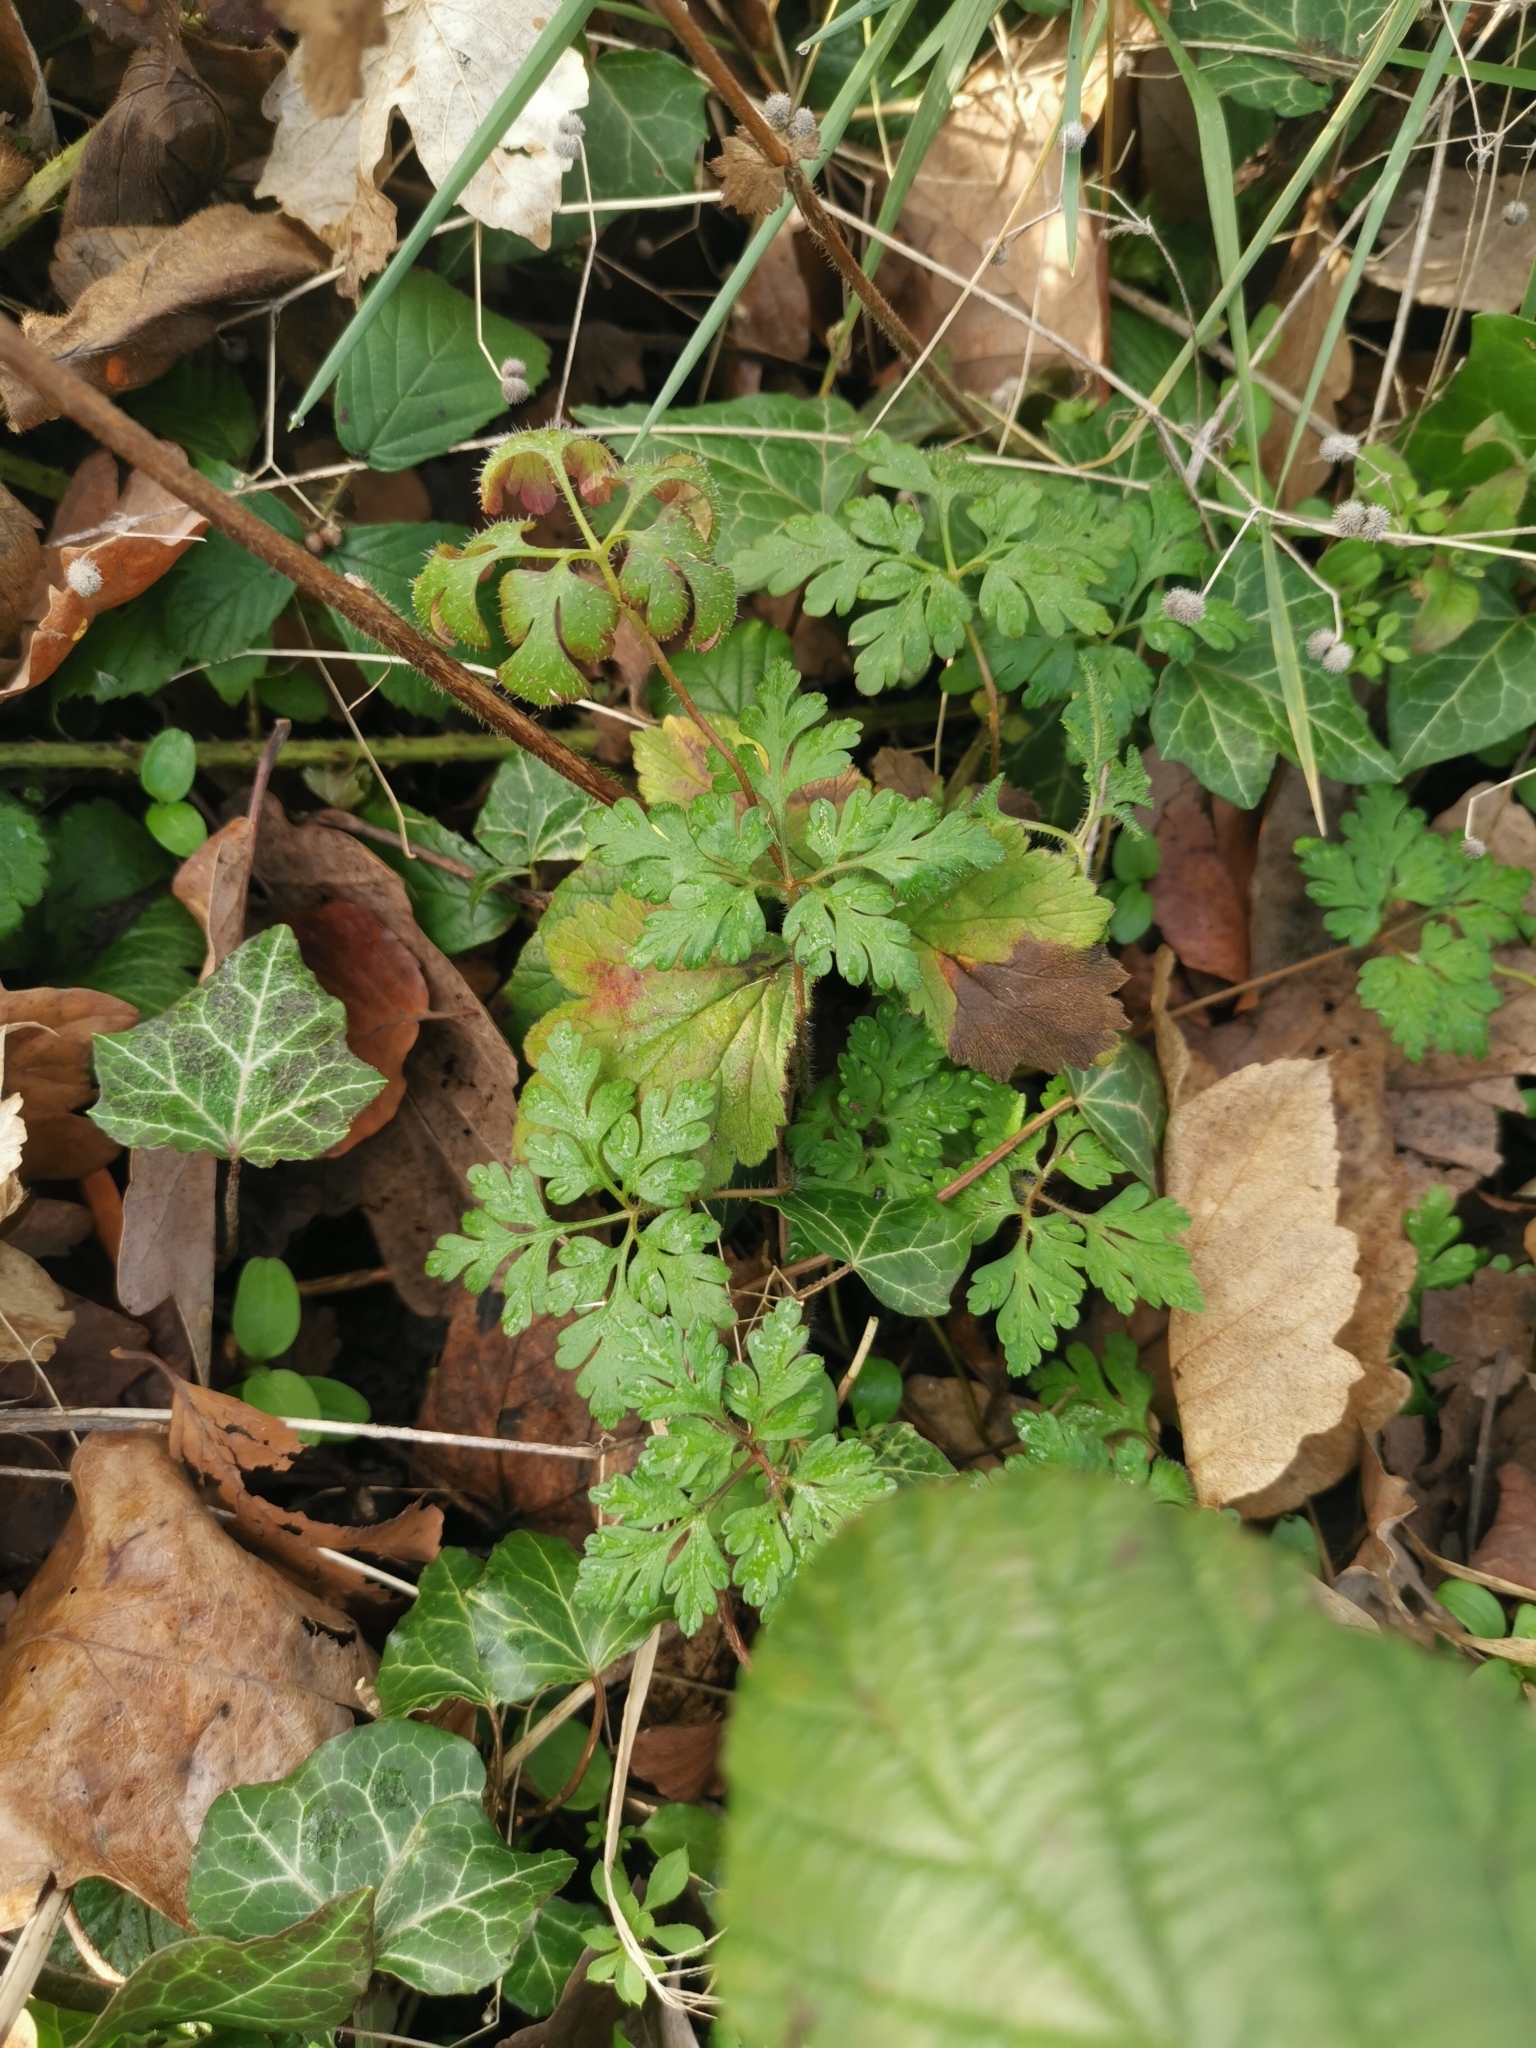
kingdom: Plantae
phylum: Tracheophyta
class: Magnoliopsida
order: Geraniales
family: Geraniaceae
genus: Geranium
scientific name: Geranium robertianum
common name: Herb-robert
